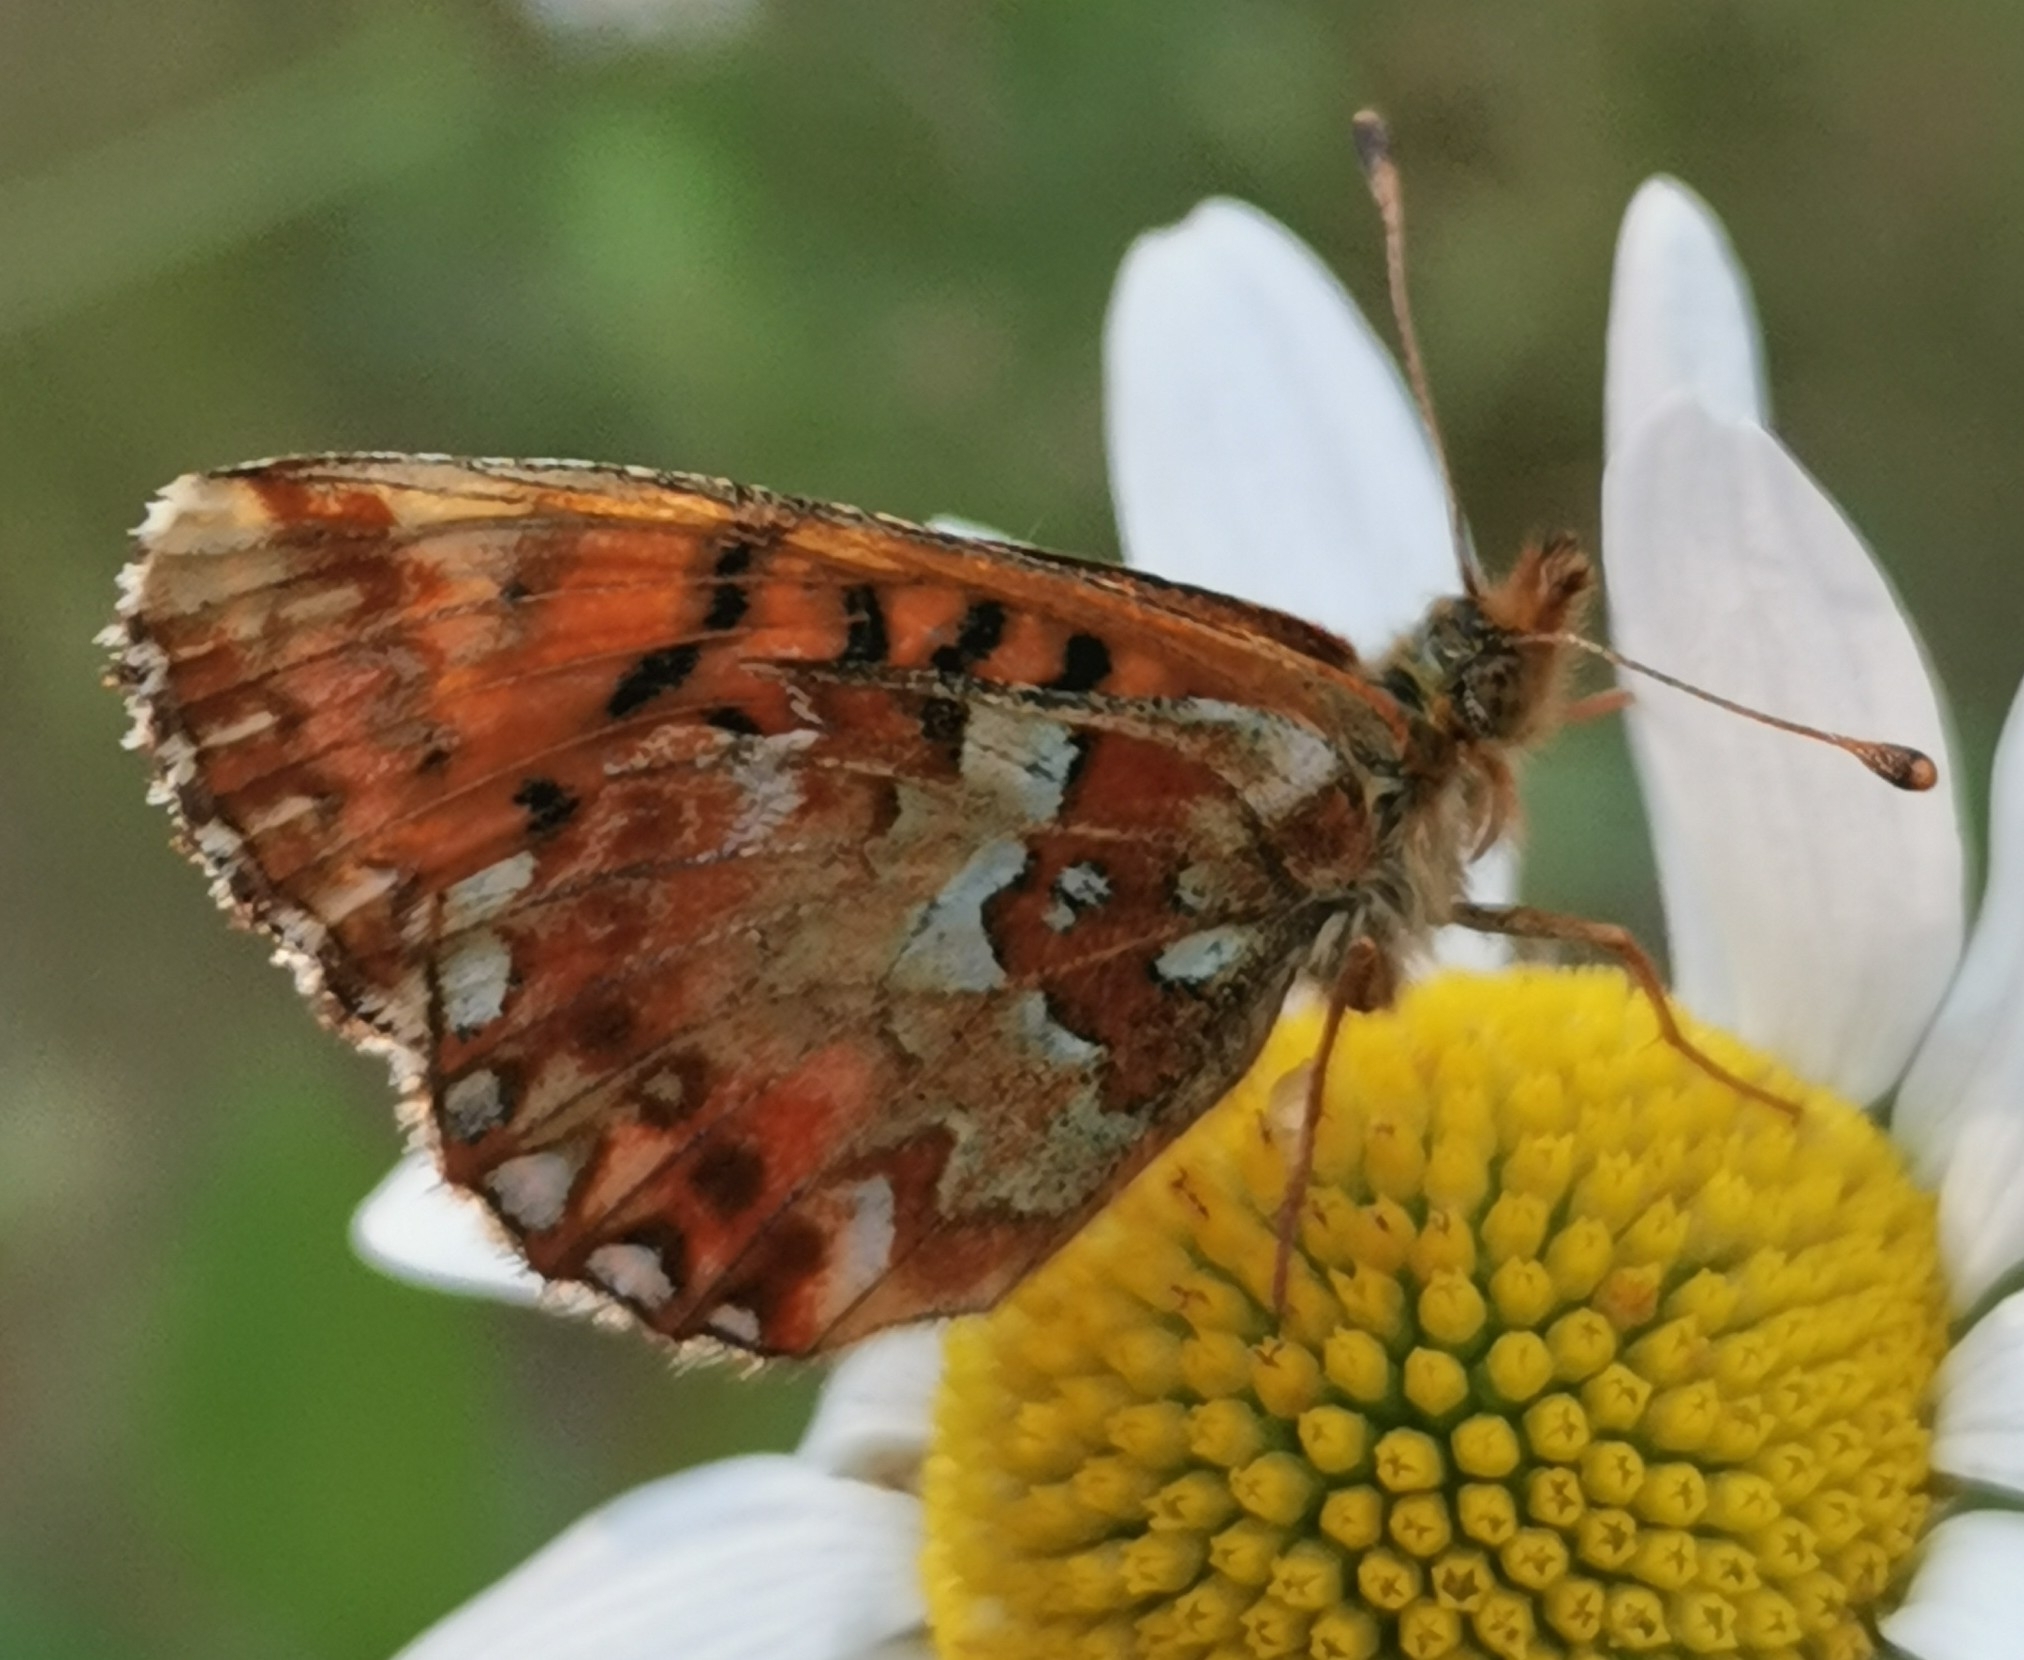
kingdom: Animalia
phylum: Arthropoda
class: Insecta
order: Lepidoptera
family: Nymphalidae
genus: Boloria
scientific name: Boloria aquilonaris
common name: Cranberry fritillary
